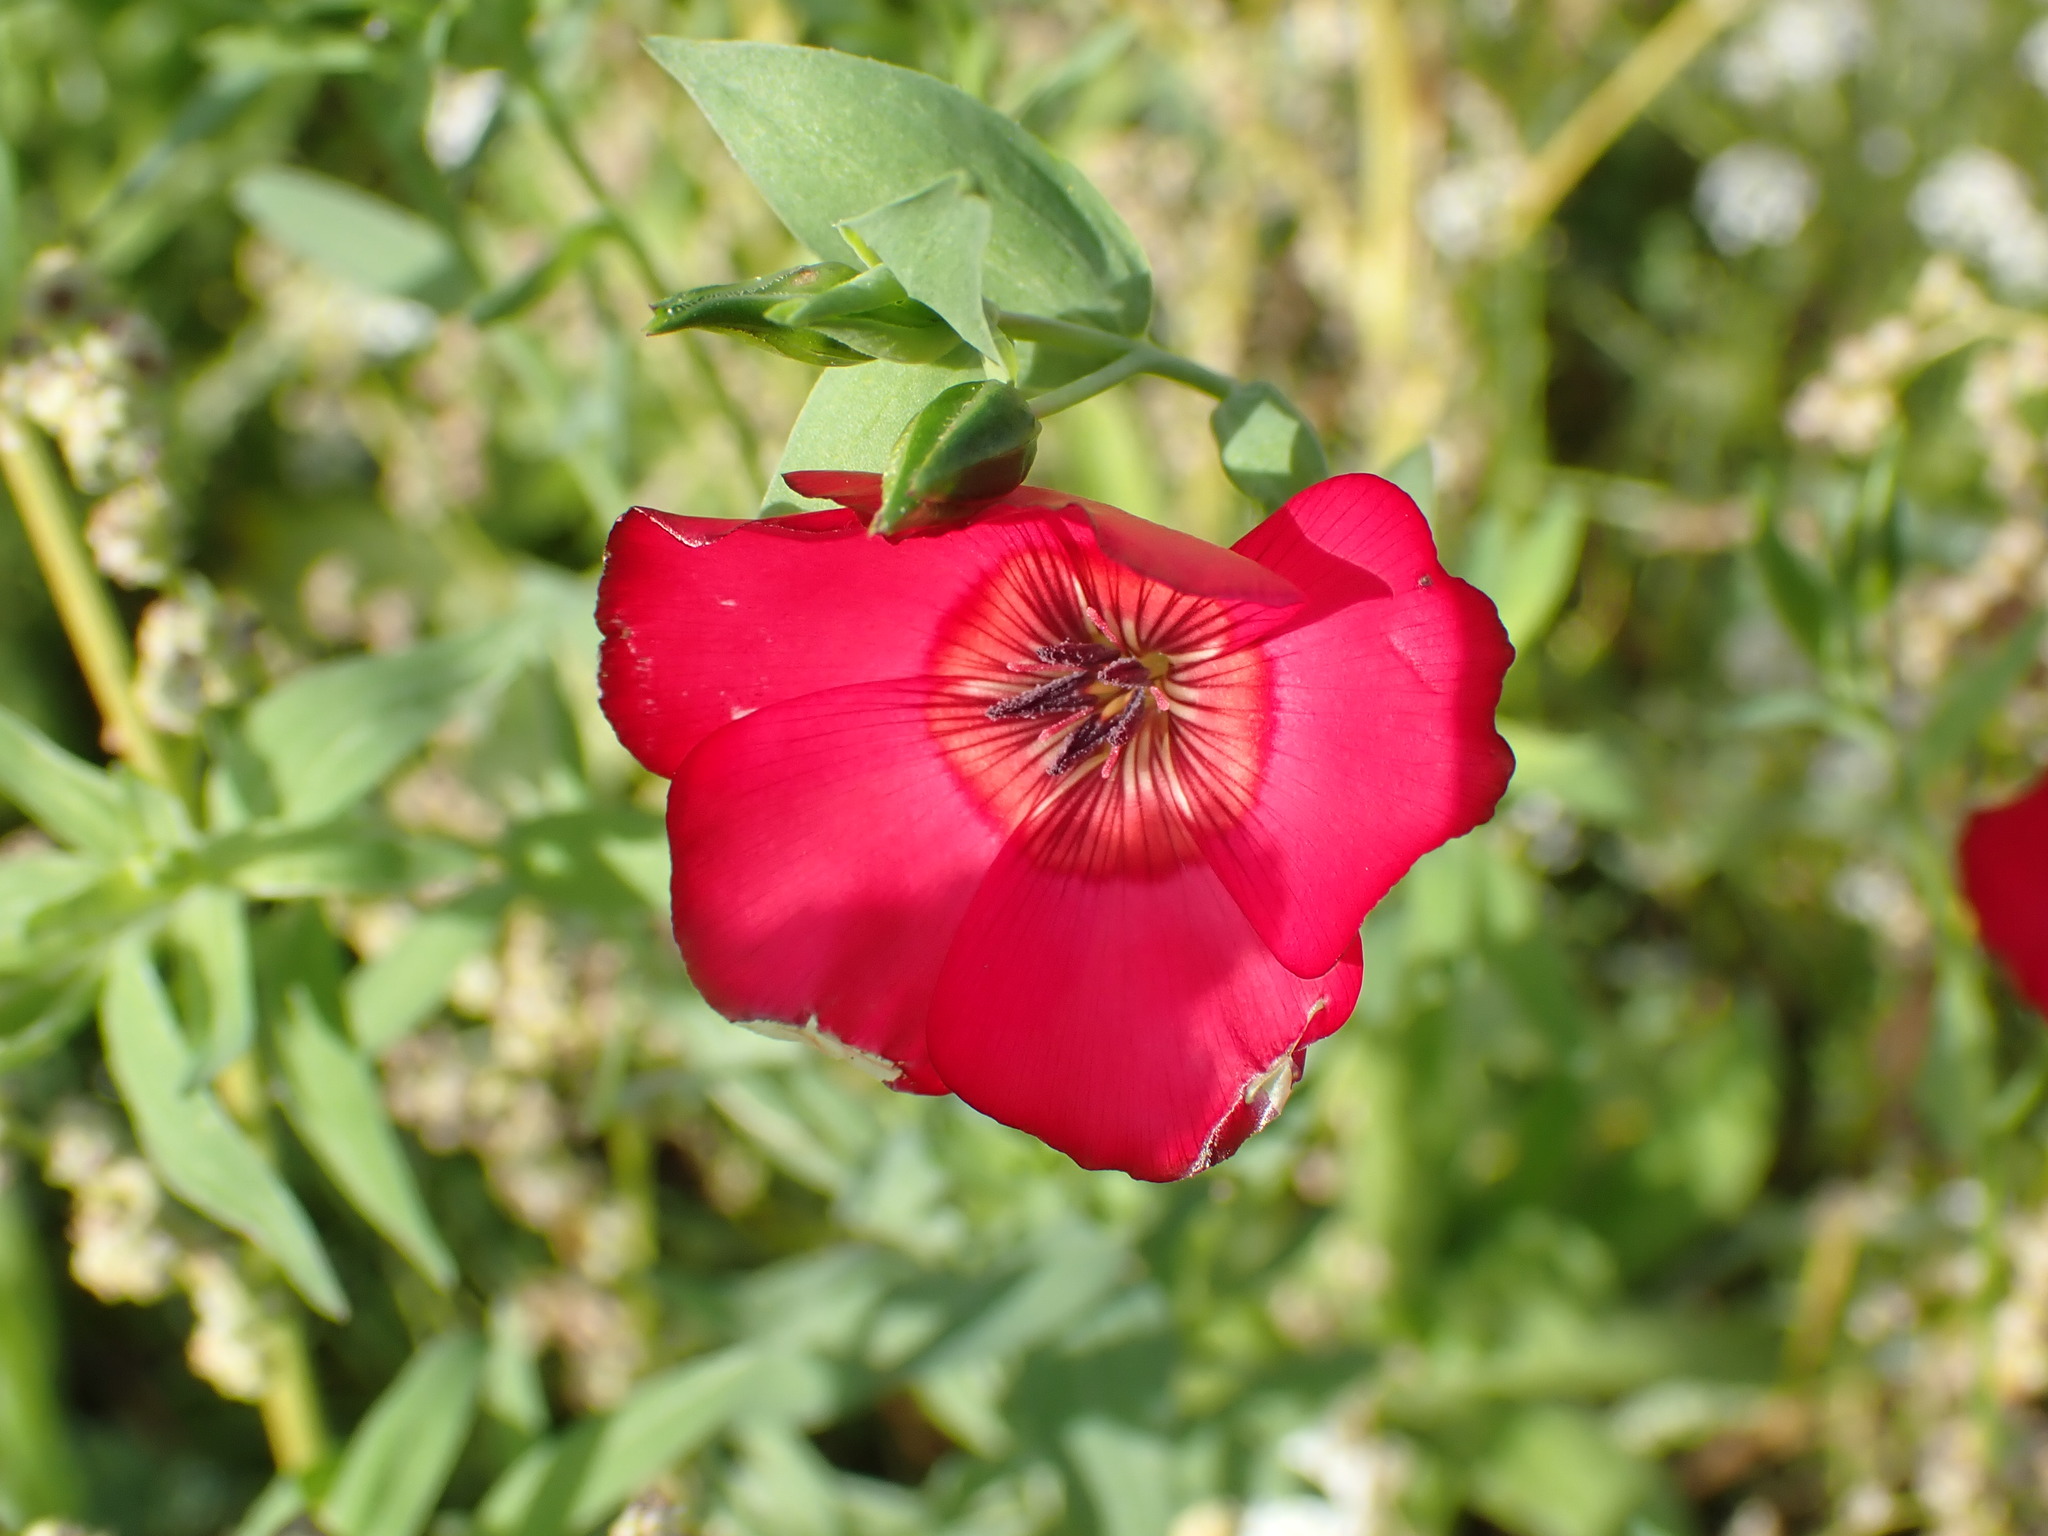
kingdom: Plantae
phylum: Tracheophyta
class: Magnoliopsida
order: Malpighiales
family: Linaceae
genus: Linum
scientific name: Linum grandiflorum
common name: Crimson flax
